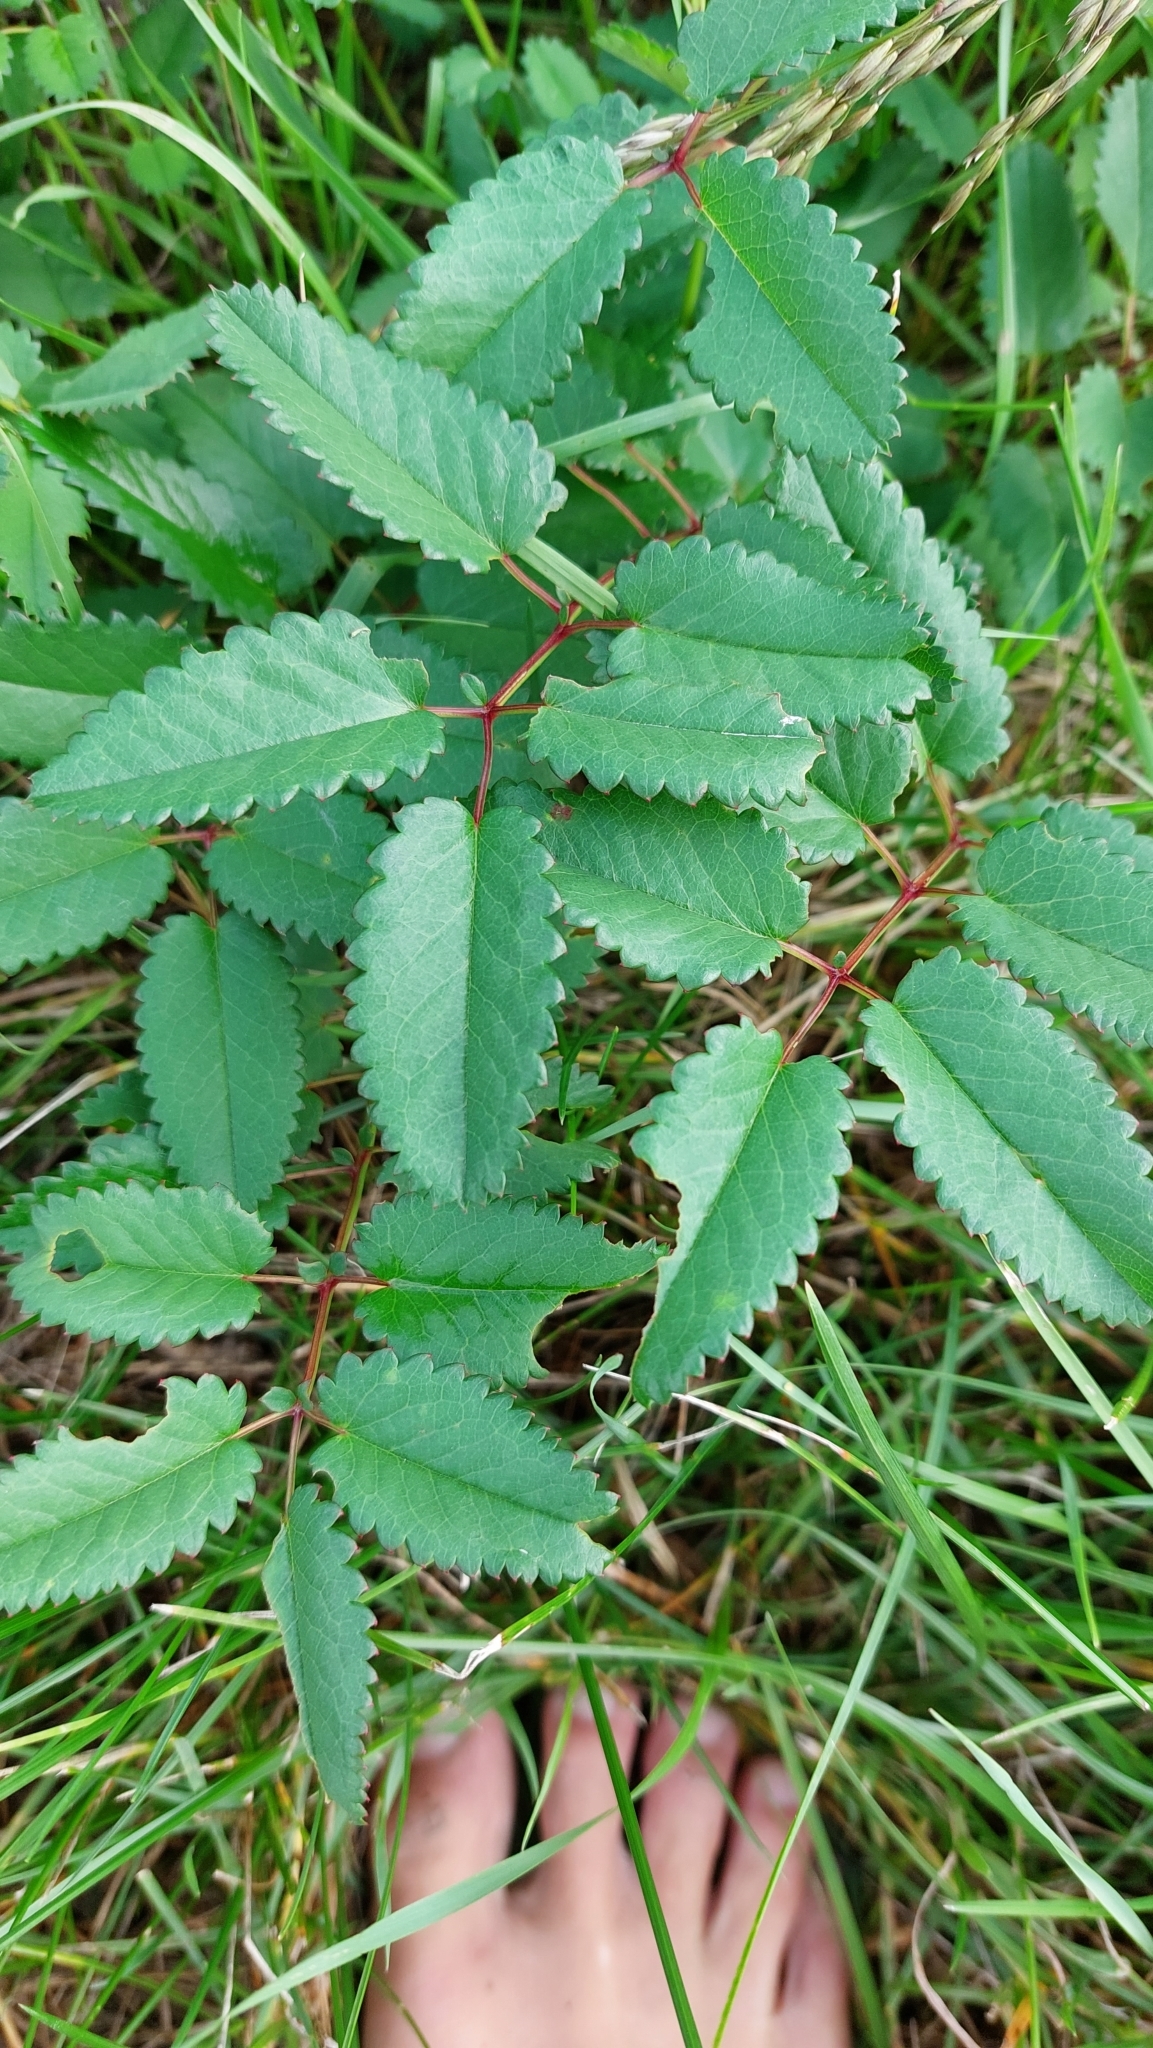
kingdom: Plantae
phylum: Tracheophyta
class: Magnoliopsida
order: Rosales
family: Rosaceae
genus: Sanguisorba
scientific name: Sanguisorba officinalis
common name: Great burnet
